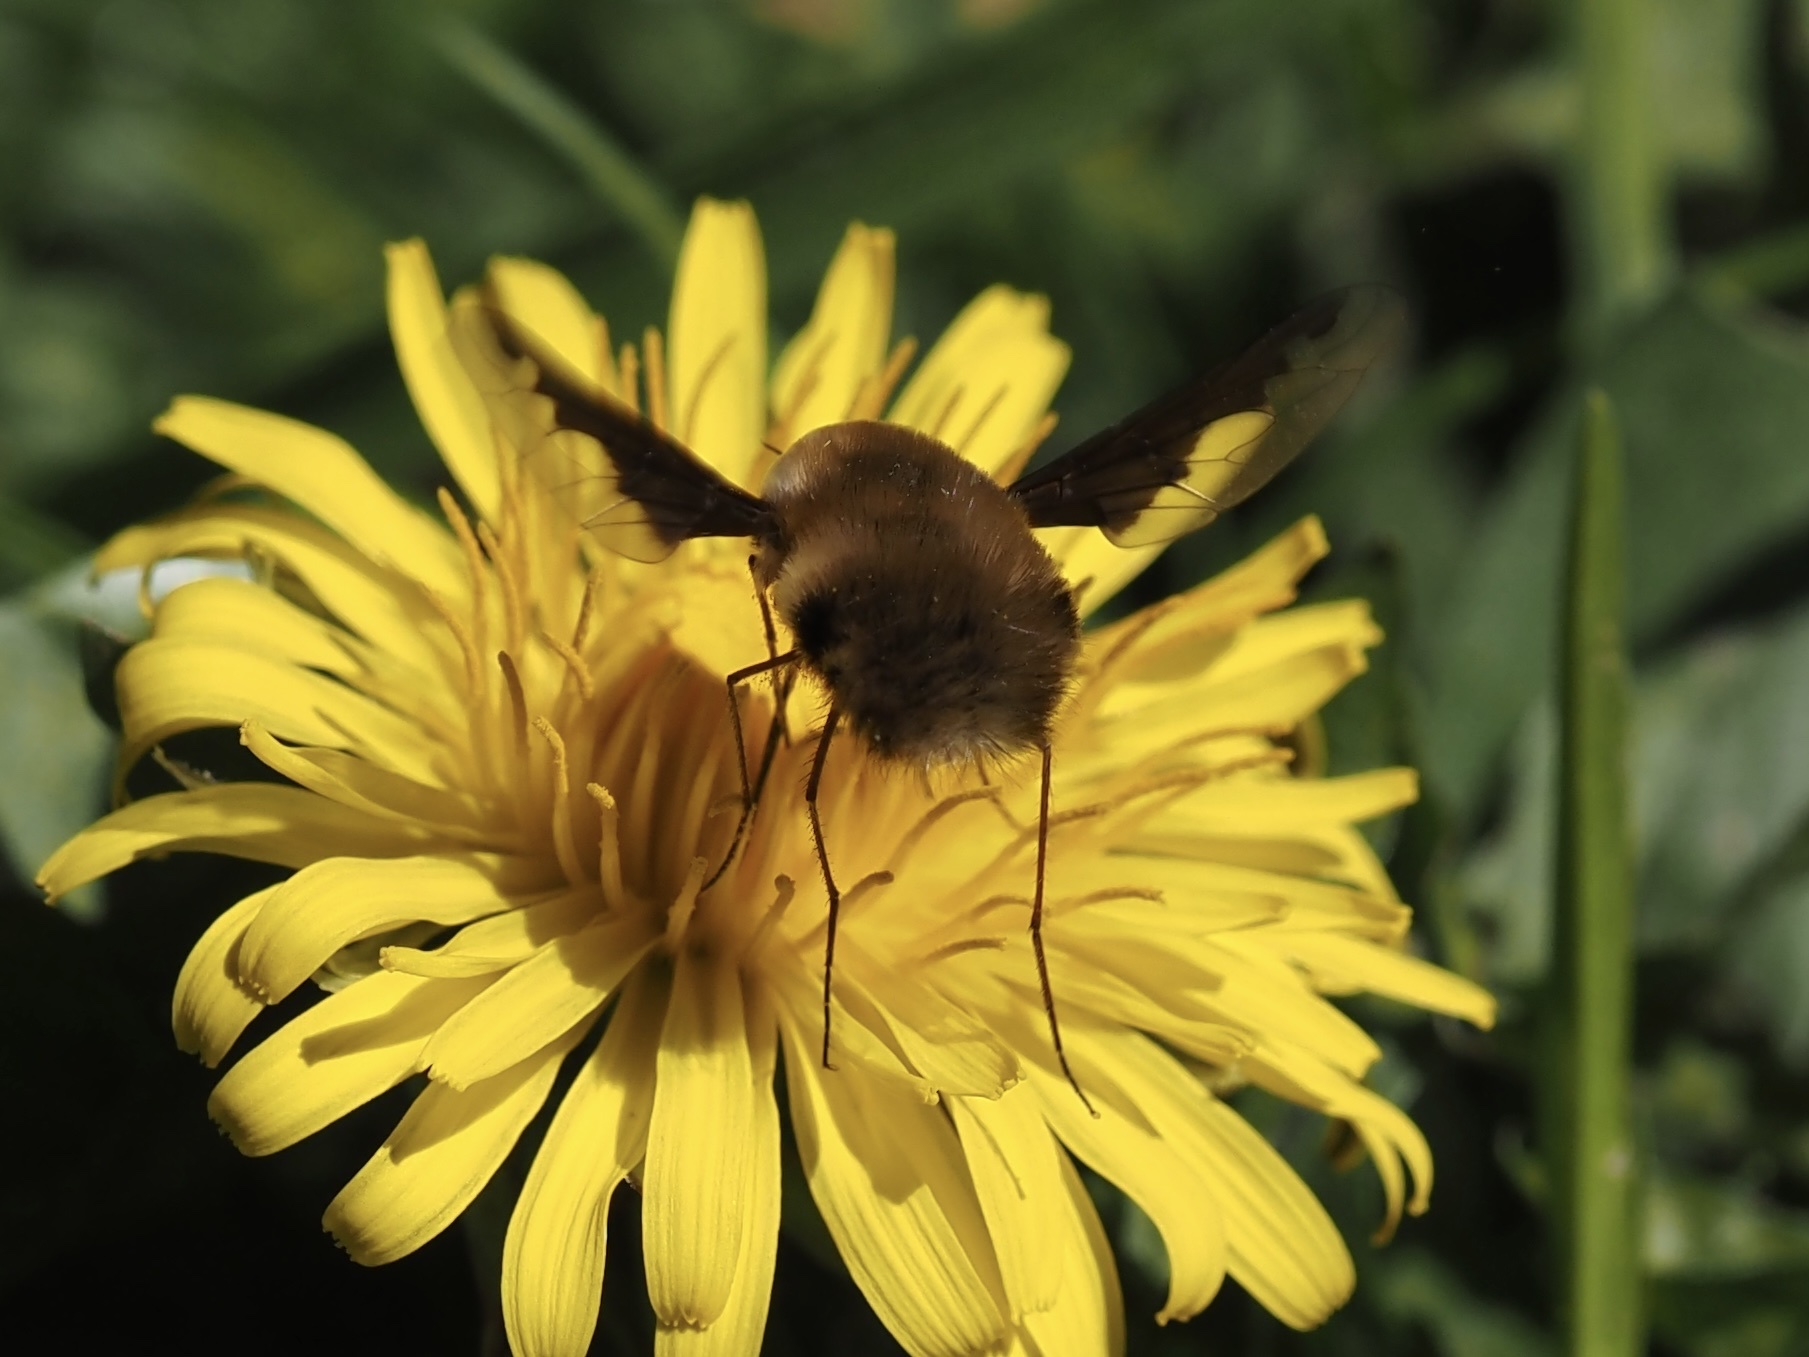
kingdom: Animalia
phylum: Arthropoda
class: Insecta
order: Diptera
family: Bombyliidae
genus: Bombylius
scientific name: Bombylius major
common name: Bee fly
